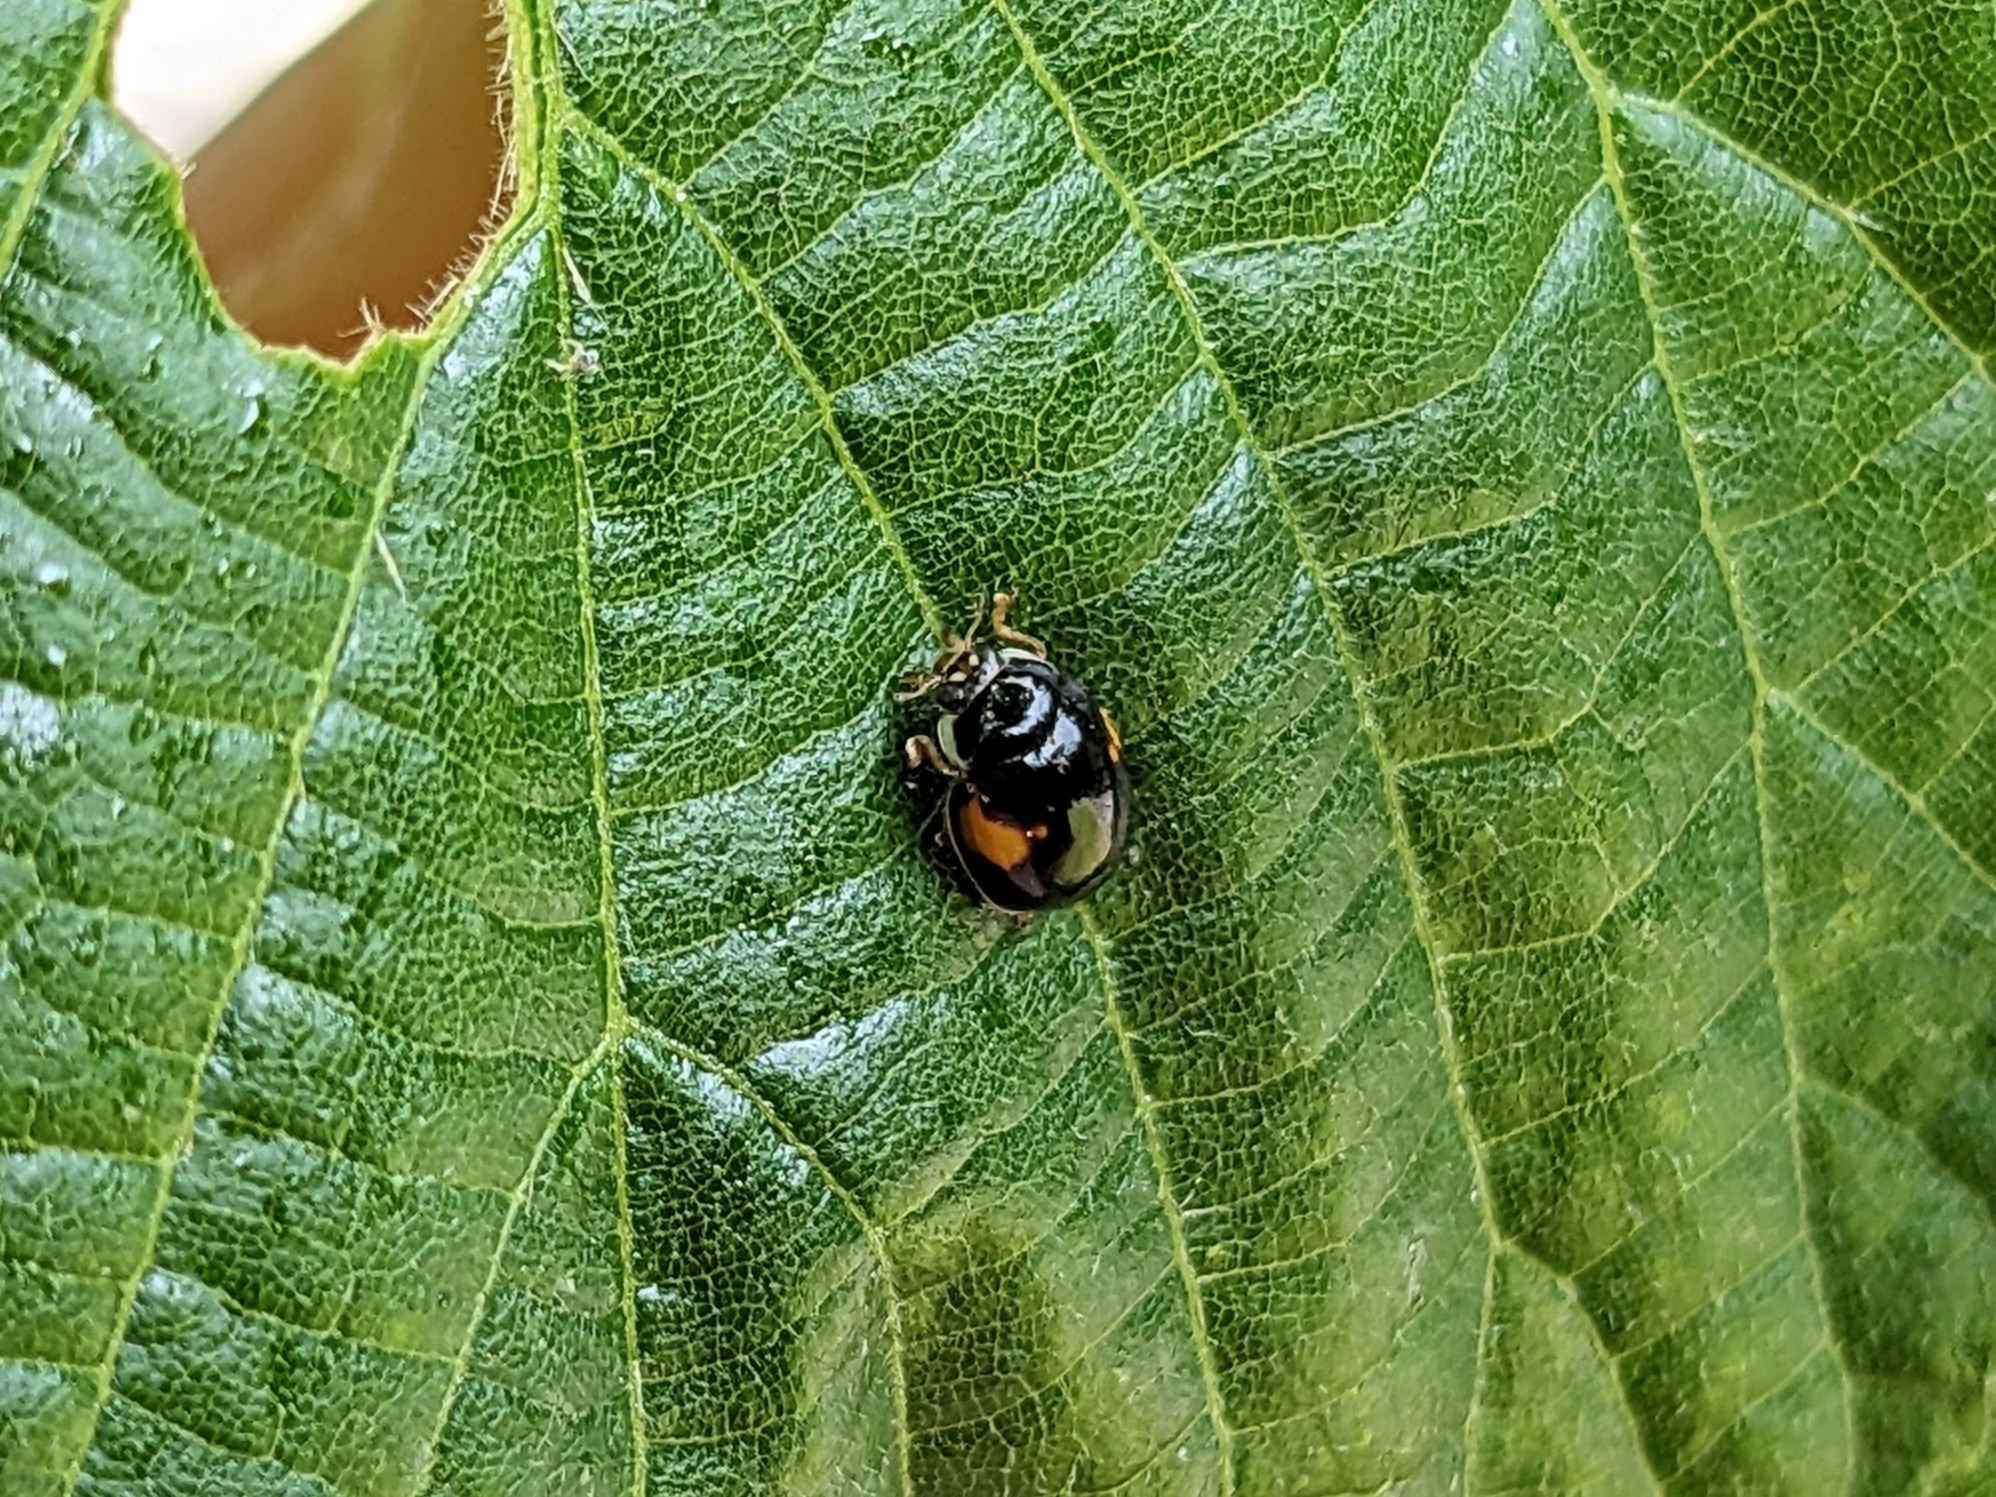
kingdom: Animalia
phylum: Arthropoda
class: Insecta
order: Coleoptera
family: Coccinellidae
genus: Adalia
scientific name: Adalia decempunctata
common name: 10-spot ladybird
